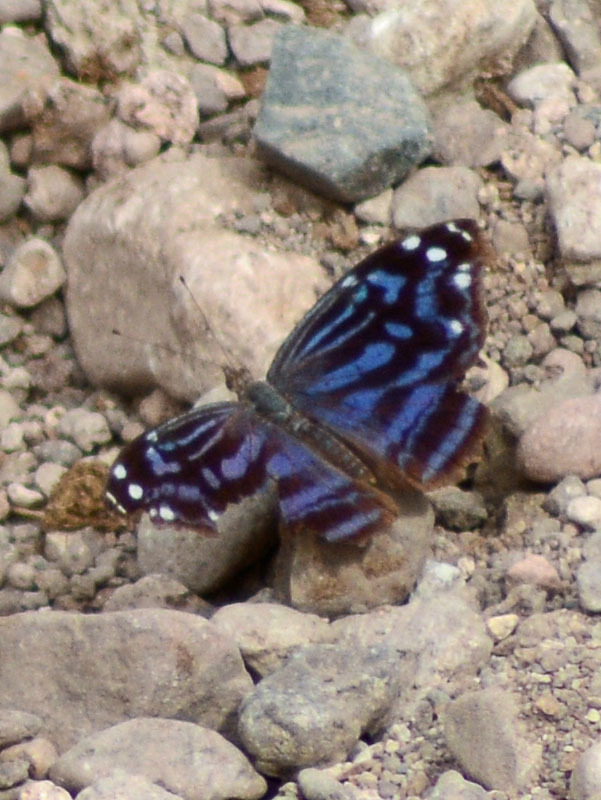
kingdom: Animalia
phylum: Arthropoda
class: Insecta
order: Lepidoptera
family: Nymphalidae
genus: Myscelia
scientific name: Myscelia ethusa
